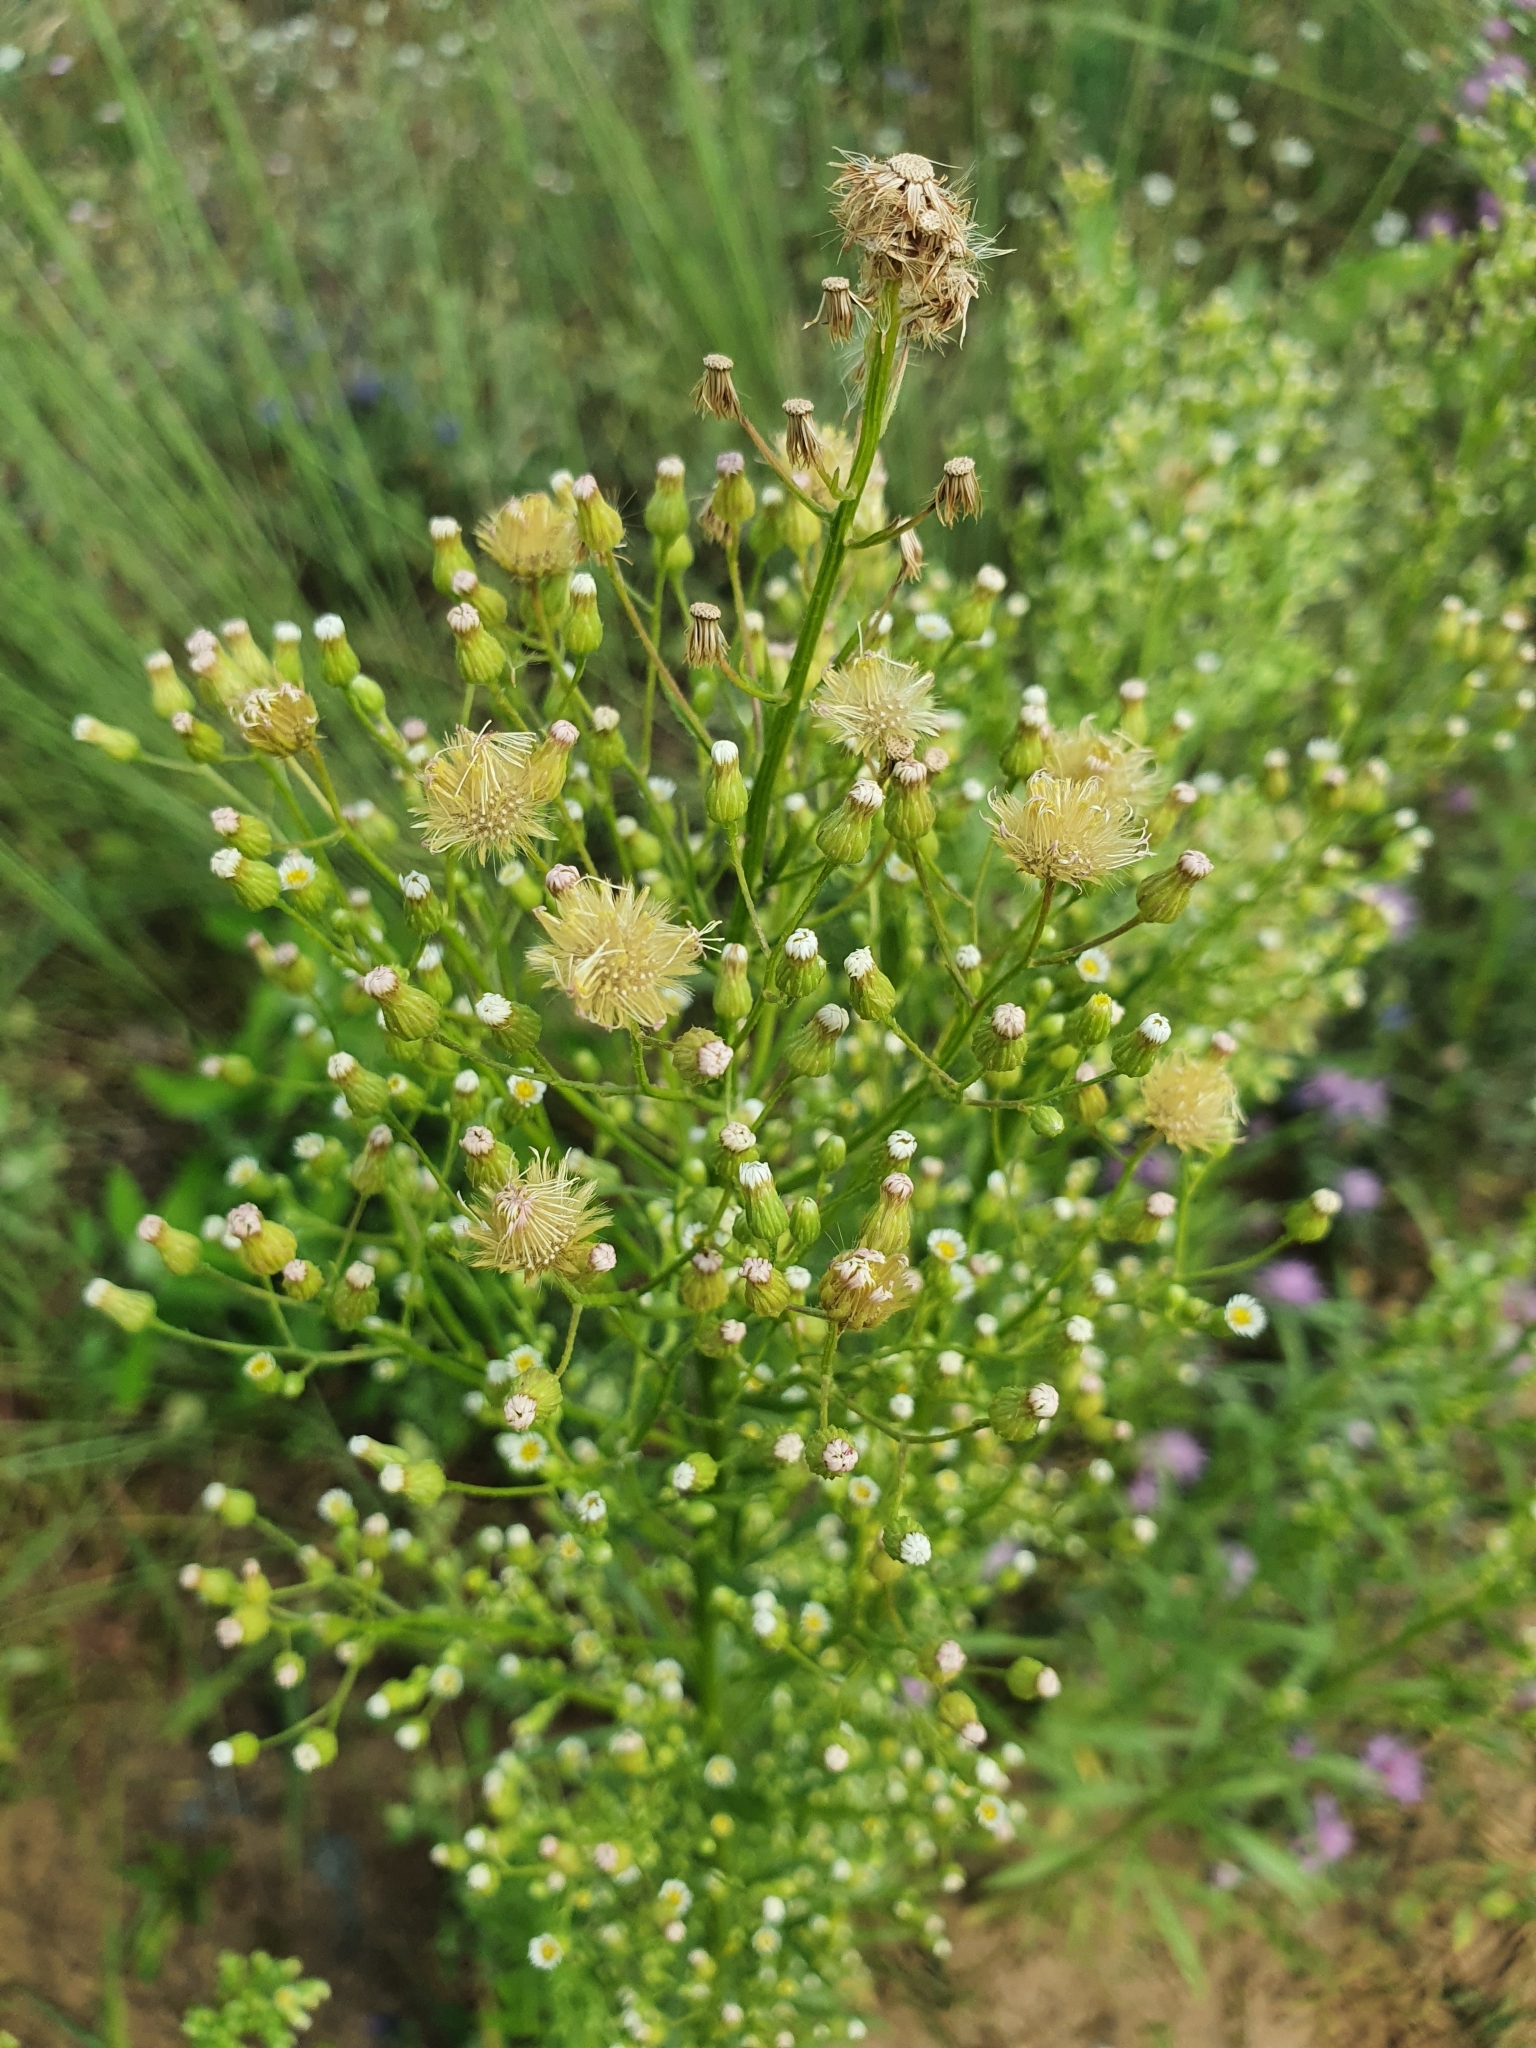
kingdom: Plantae
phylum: Tracheophyta
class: Magnoliopsida
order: Asterales
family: Asteraceae
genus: Erigeron
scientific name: Erigeron canadensis
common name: Canadian fleabane
